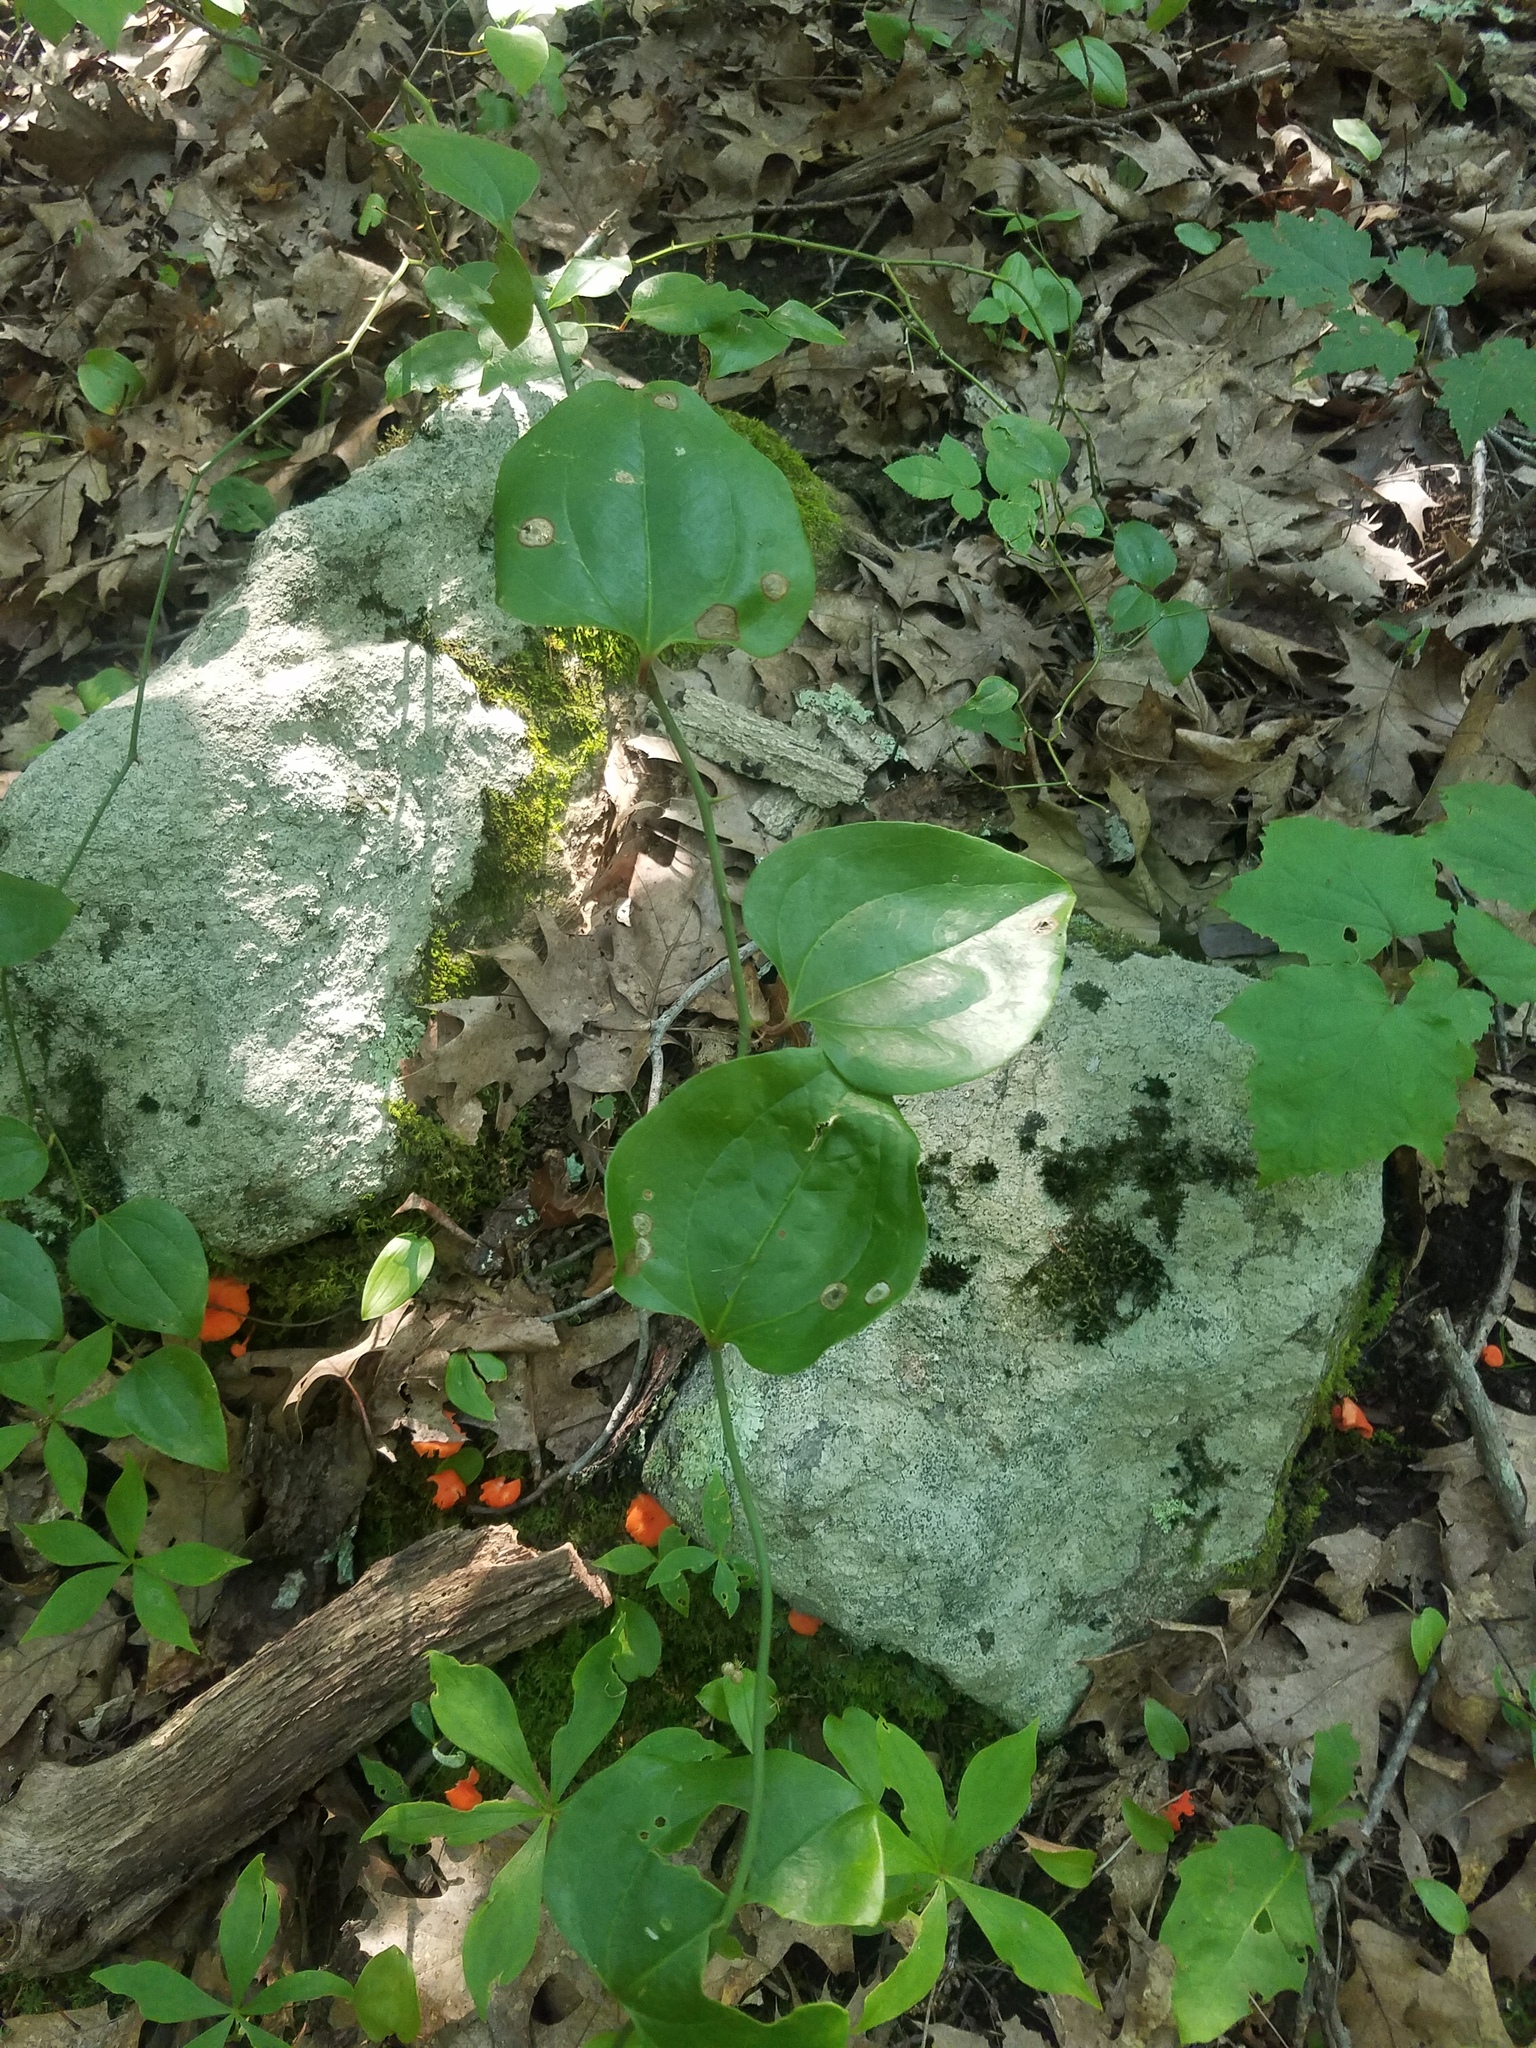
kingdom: Plantae
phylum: Tracheophyta
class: Liliopsida
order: Liliales
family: Smilacaceae
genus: Smilax
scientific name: Smilax rotundifolia
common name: Bullbriar
